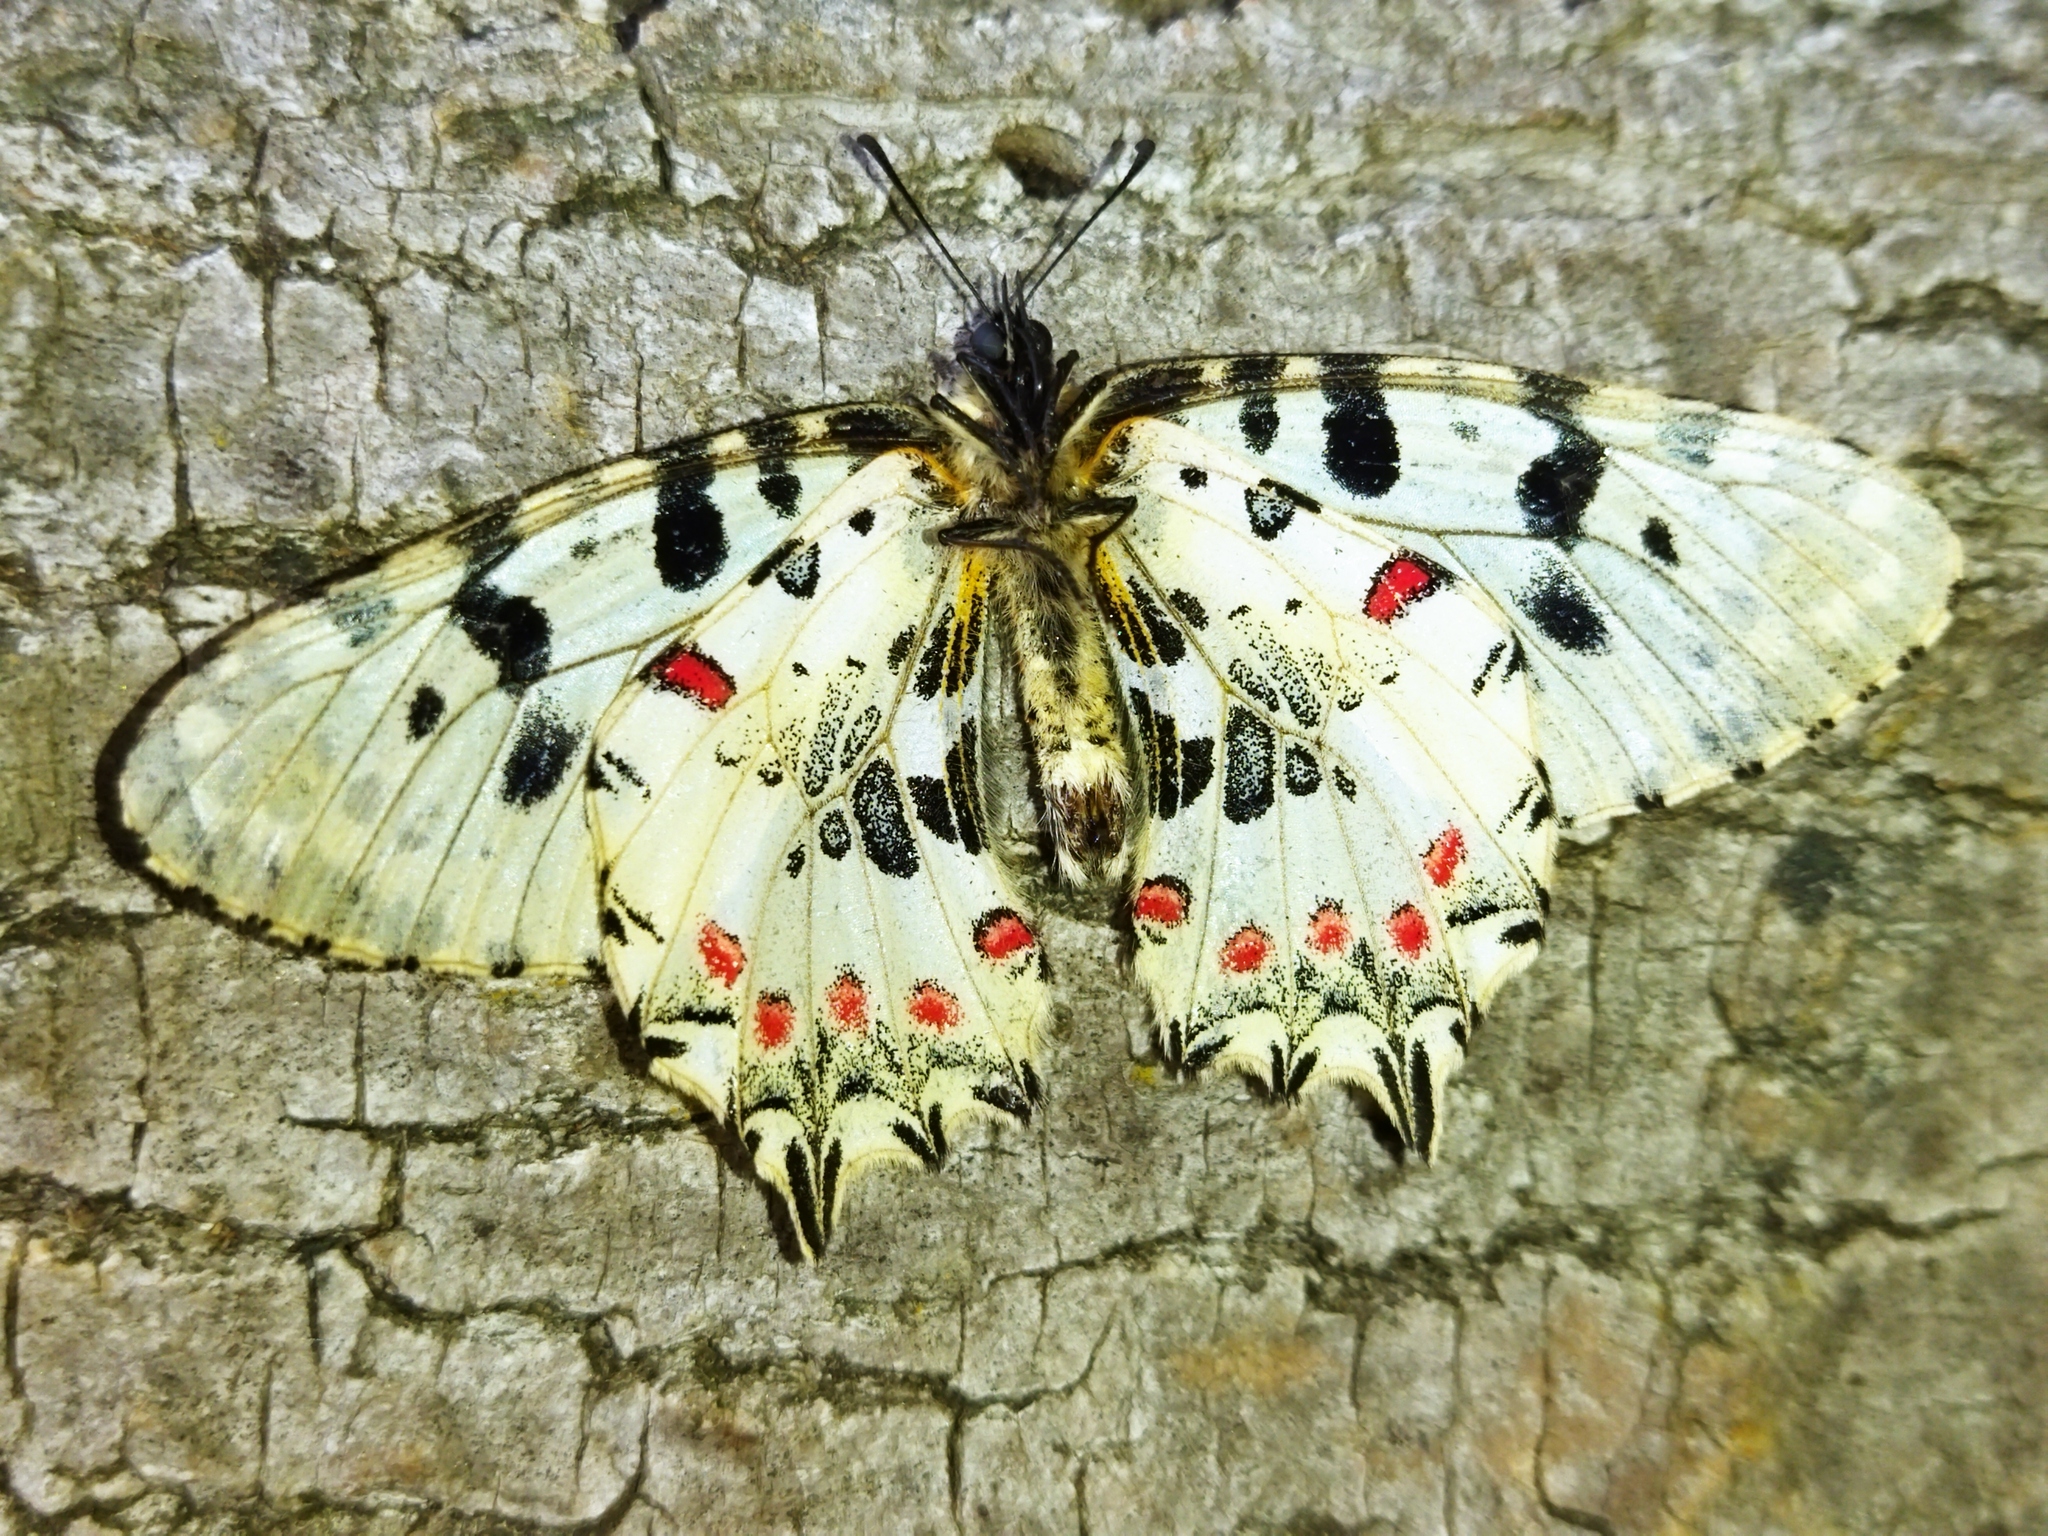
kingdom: Animalia
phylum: Arthropoda
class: Insecta
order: Lepidoptera
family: Papilionidae
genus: Zerynthia
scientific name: Zerynthia cerisy
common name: Eastern festoon
